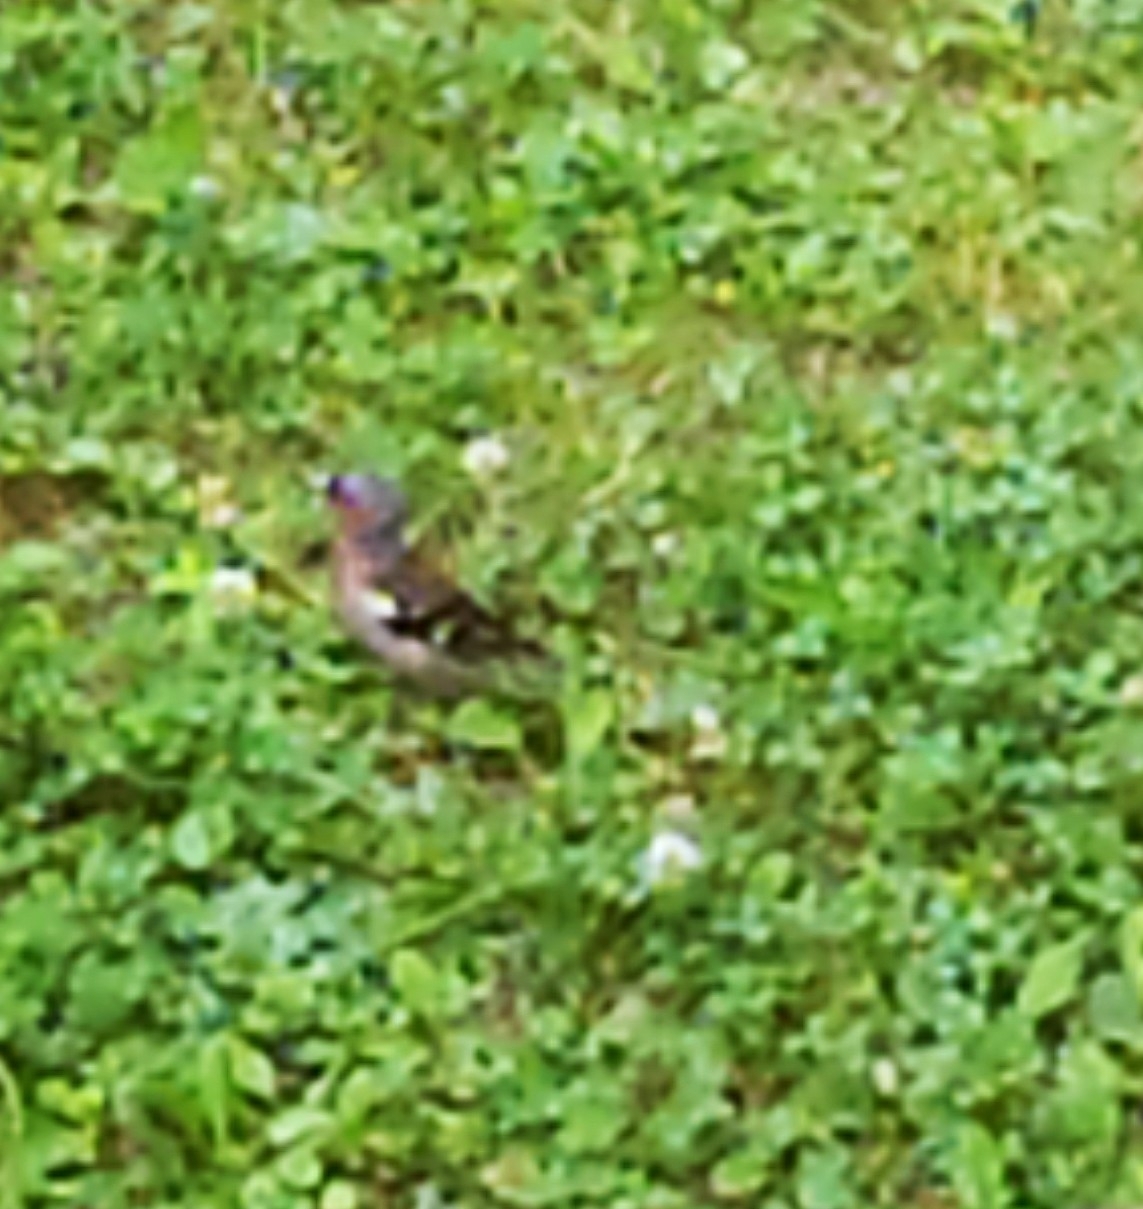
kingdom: Animalia
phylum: Chordata
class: Aves
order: Passeriformes
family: Fringillidae
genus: Fringilla
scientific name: Fringilla coelebs
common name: Common chaffinch
